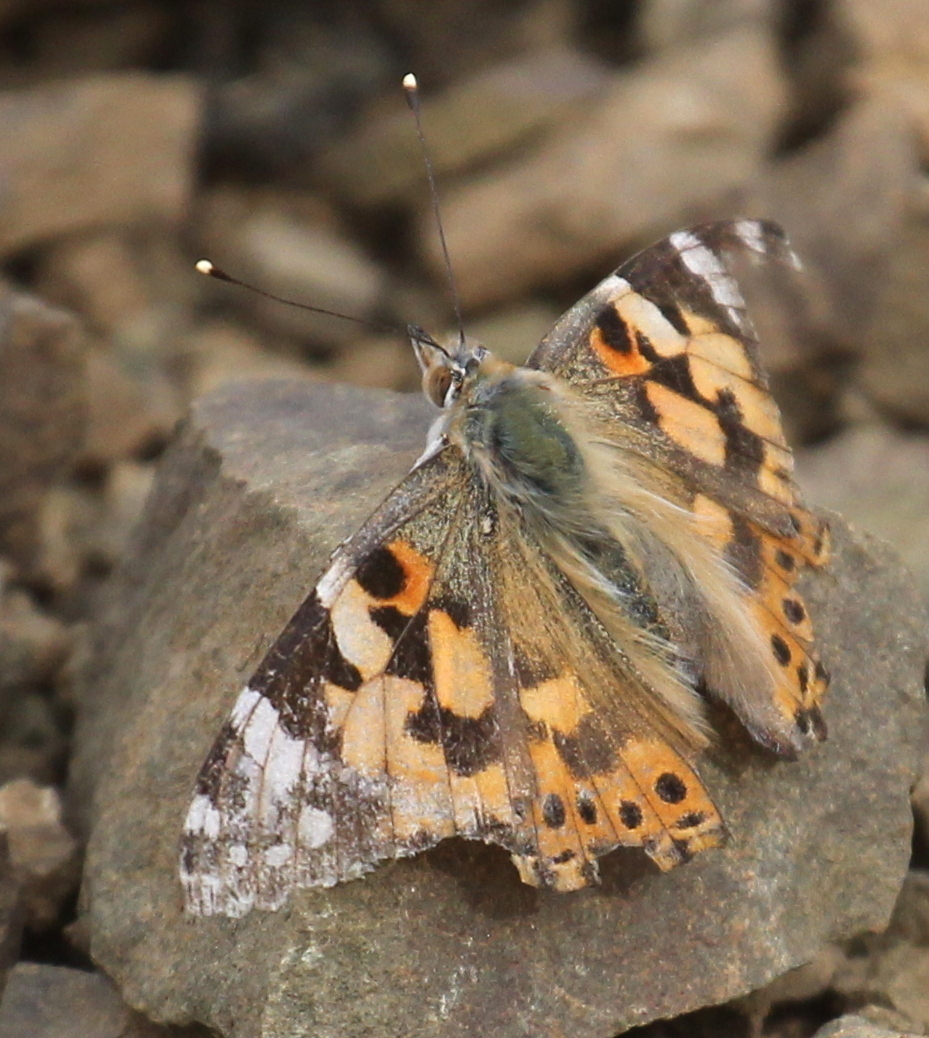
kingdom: Animalia
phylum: Arthropoda
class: Insecta
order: Lepidoptera
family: Nymphalidae
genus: Vanessa
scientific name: Vanessa cardui
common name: Painted lady
